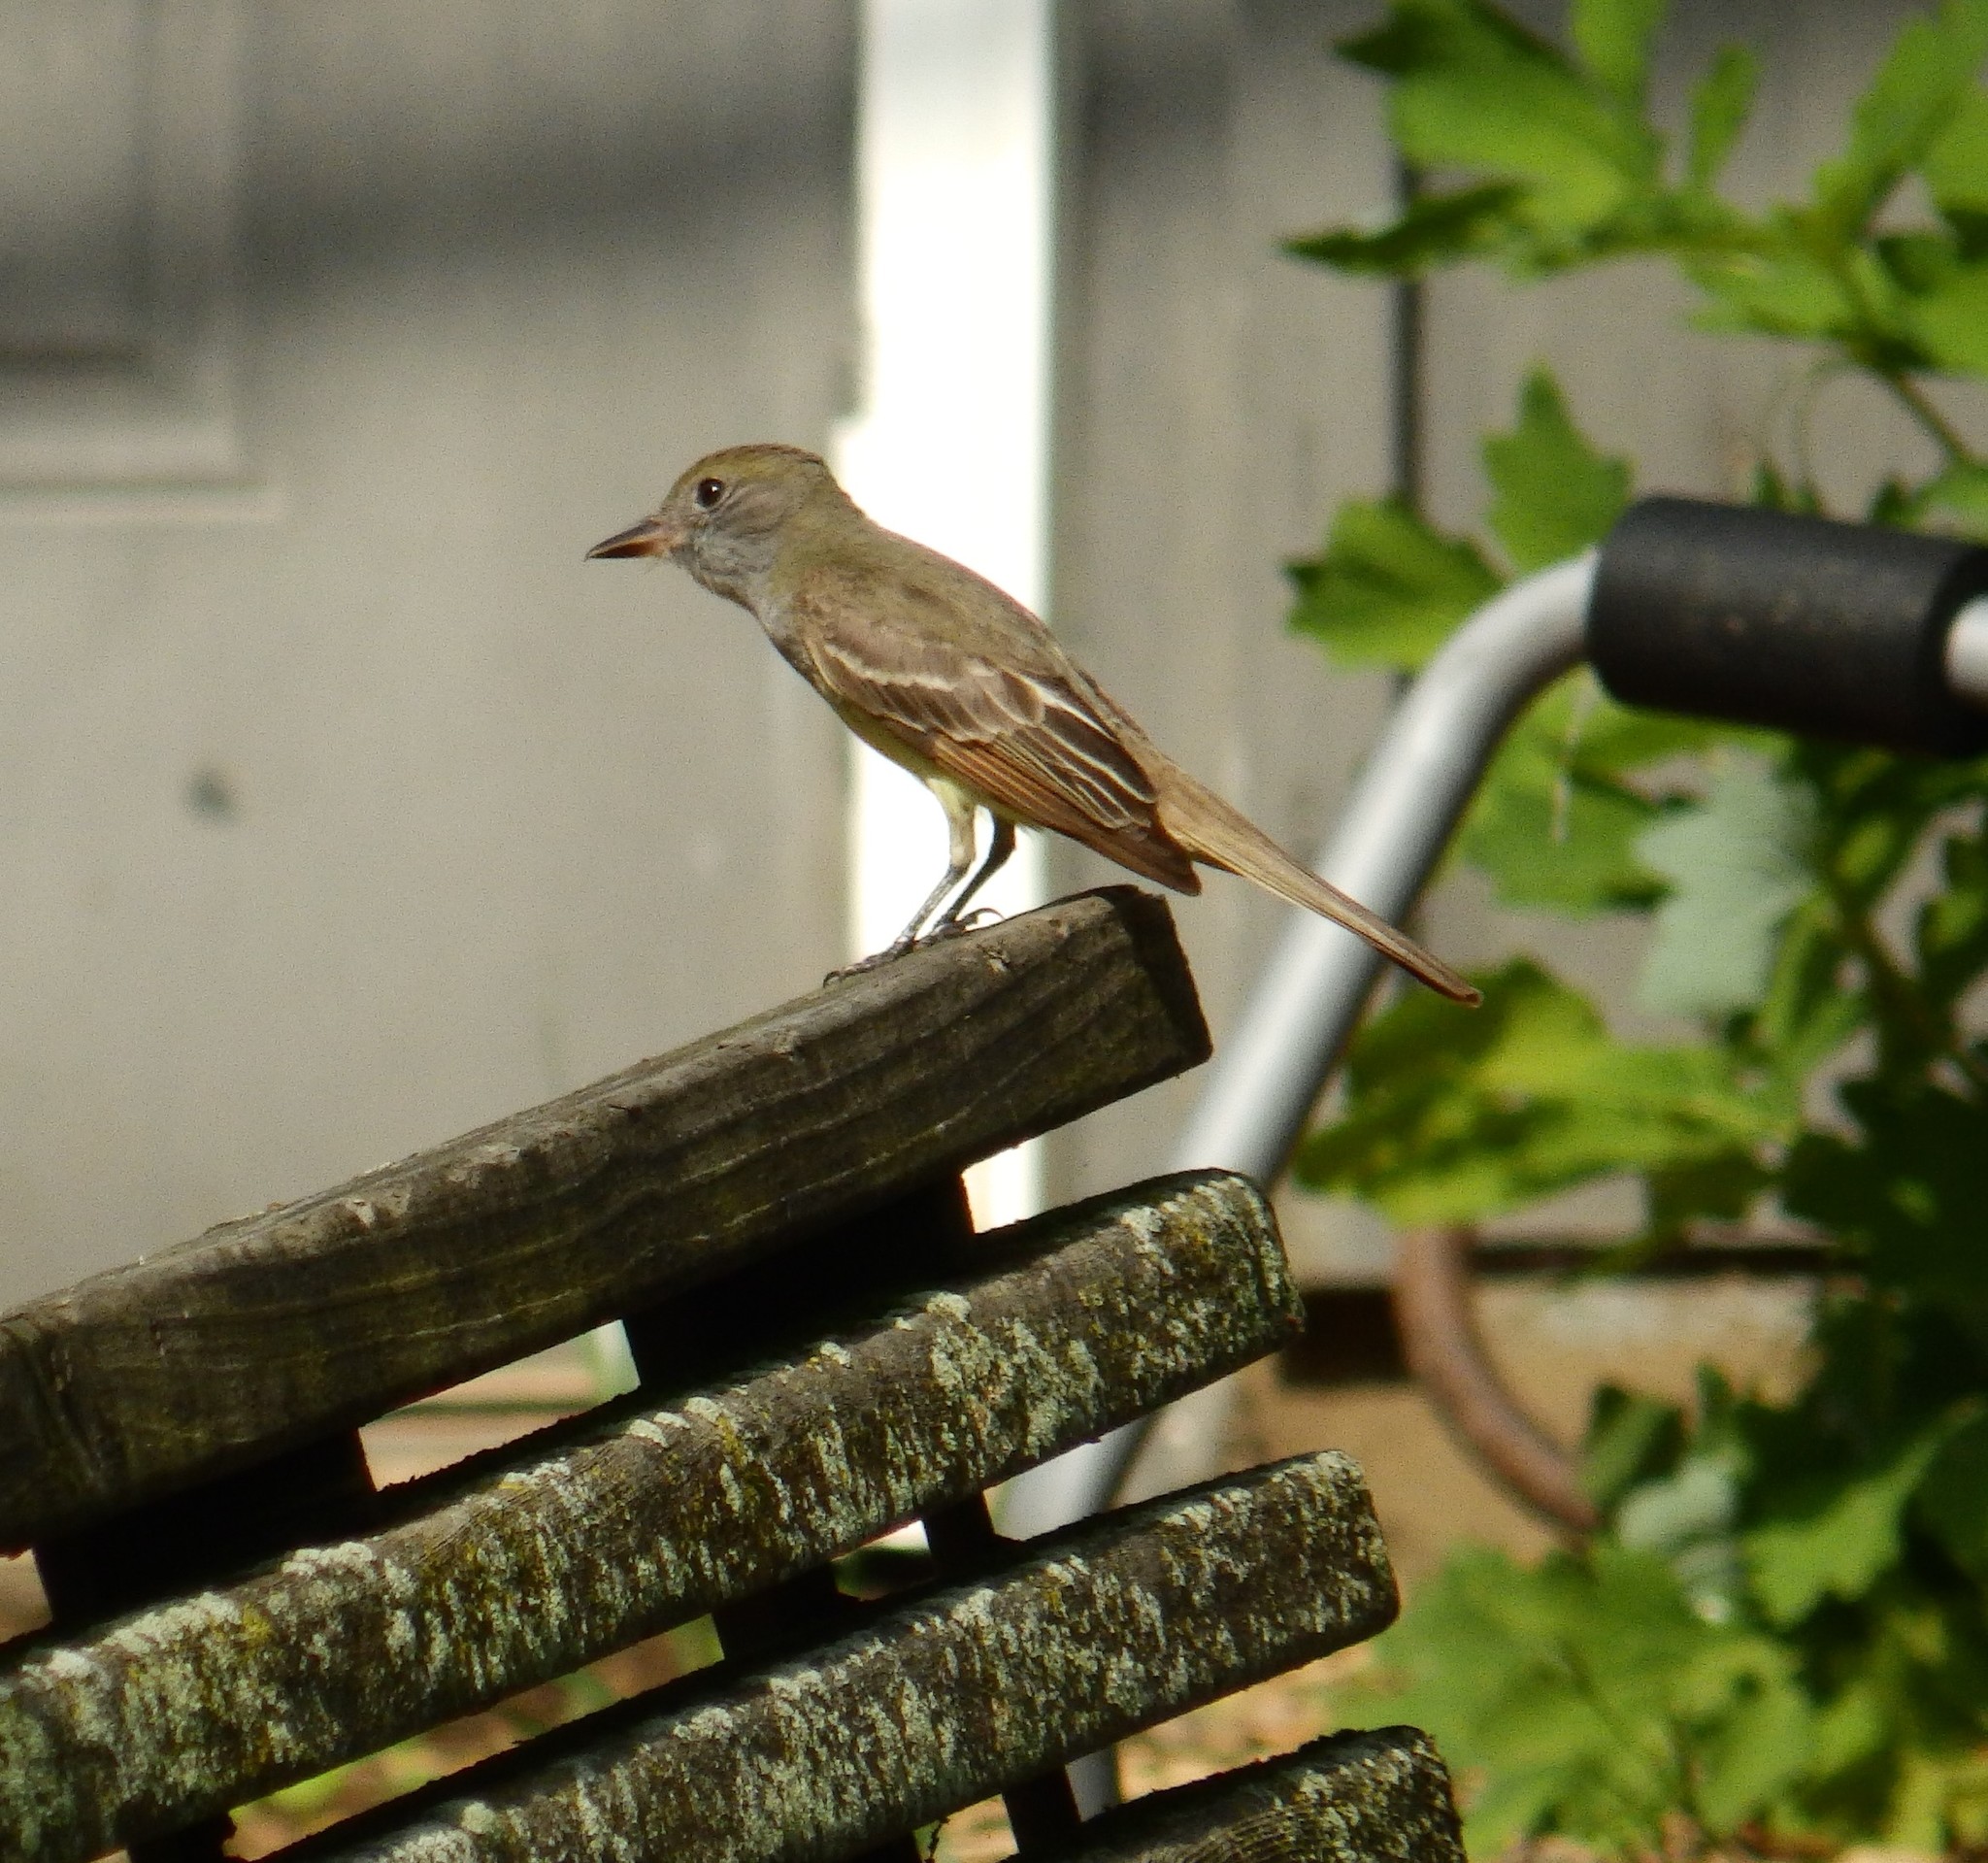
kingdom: Animalia
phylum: Chordata
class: Aves
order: Passeriformes
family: Tyrannidae
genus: Myiarchus
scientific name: Myiarchus crinitus
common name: Great crested flycatcher
